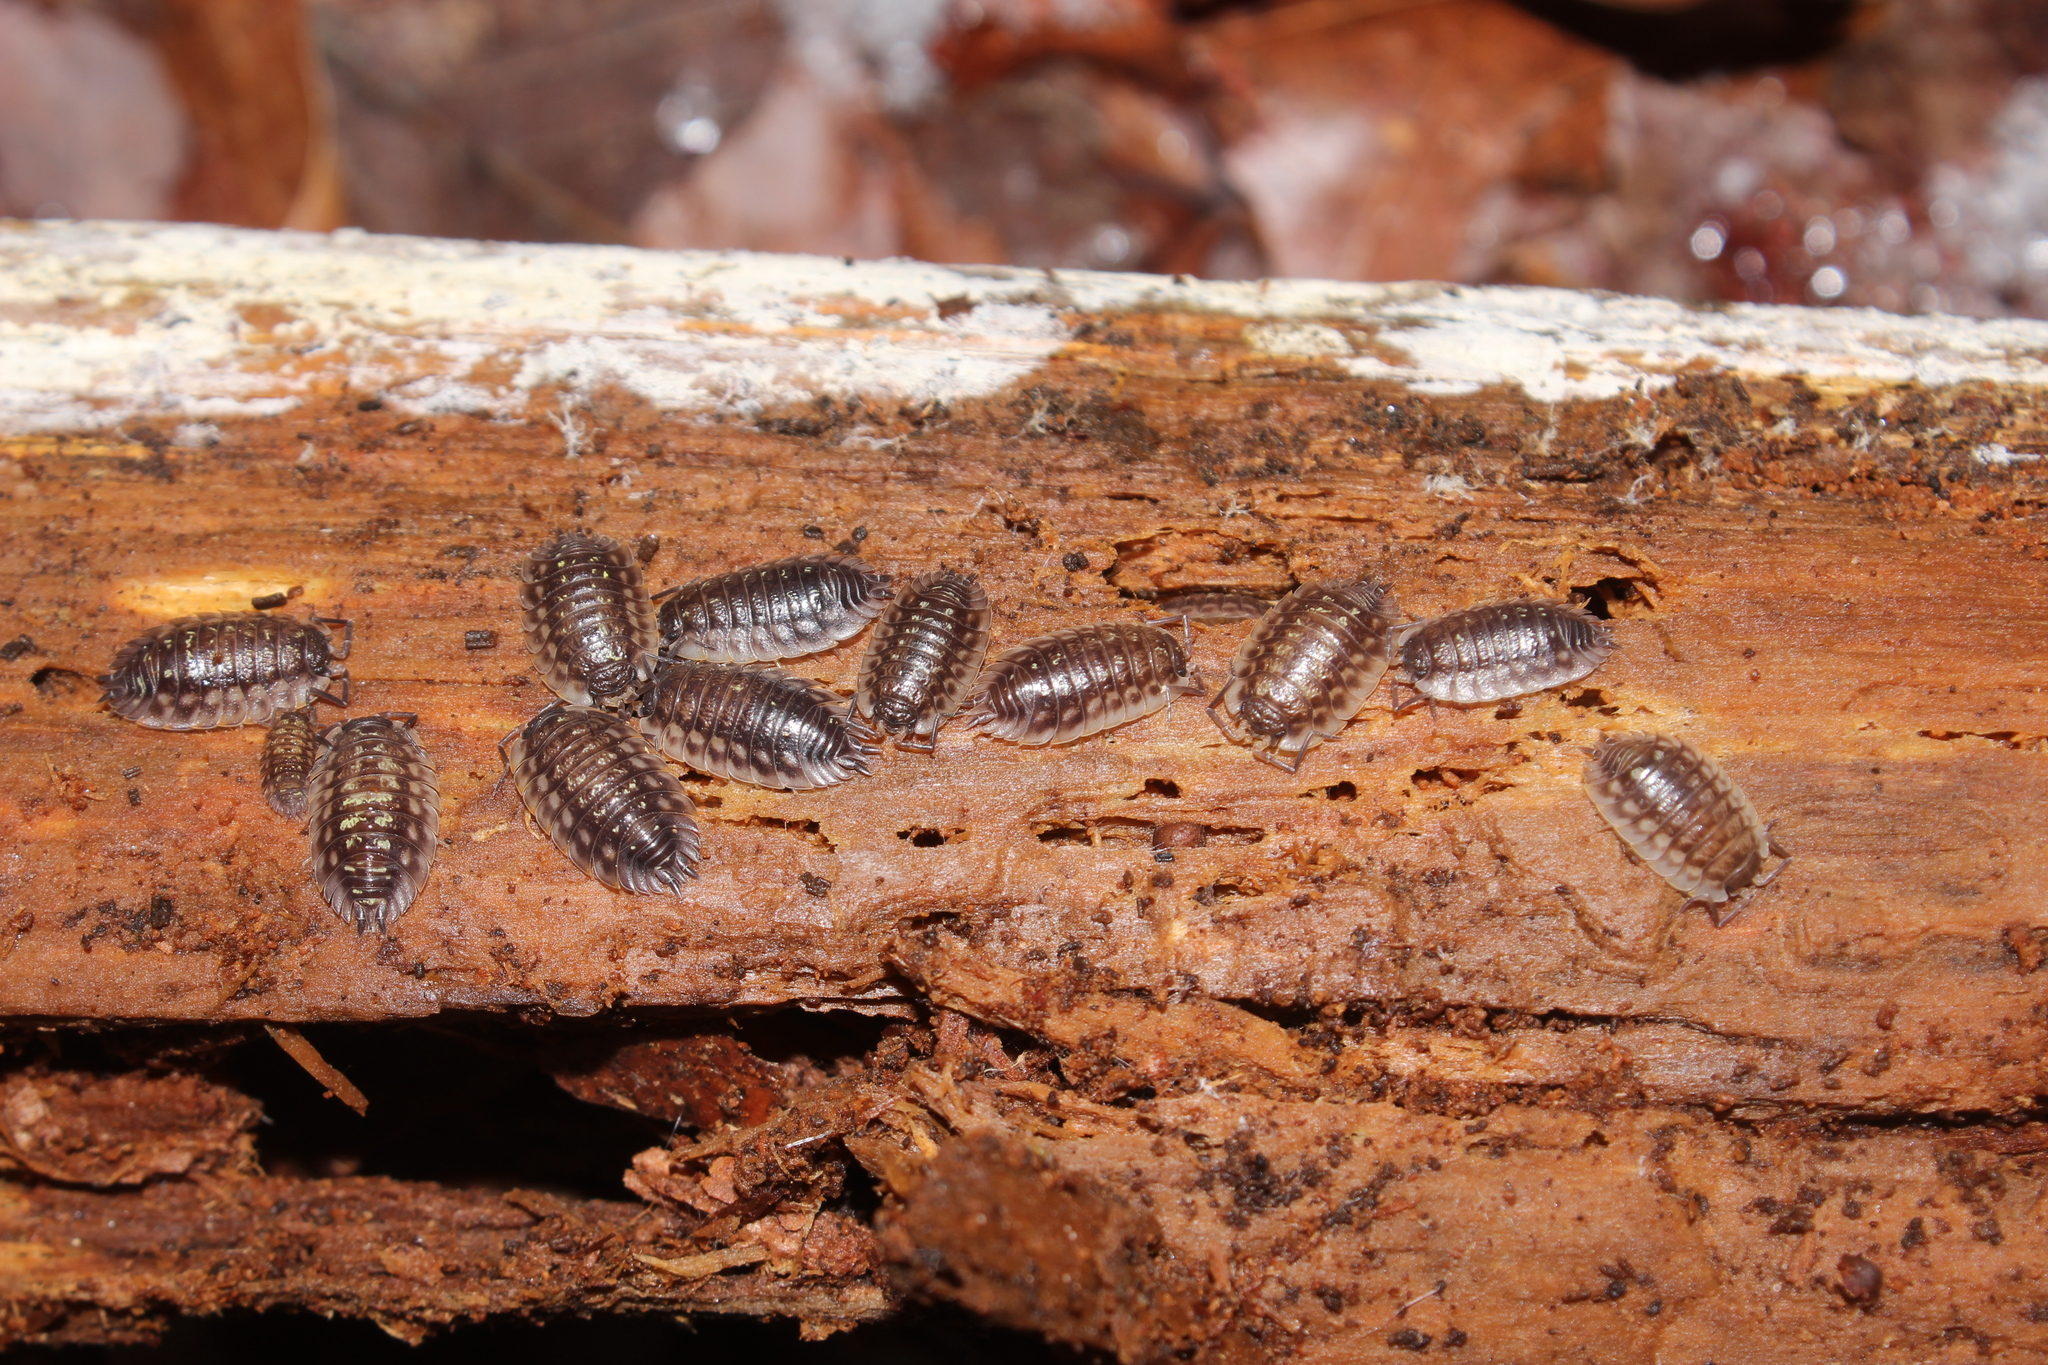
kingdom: Animalia
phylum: Arthropoda
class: Malacostraca
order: Isopoda
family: Oniscidae
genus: Oniscus
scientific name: Oniscus asellus
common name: Common shiny woodlouse
